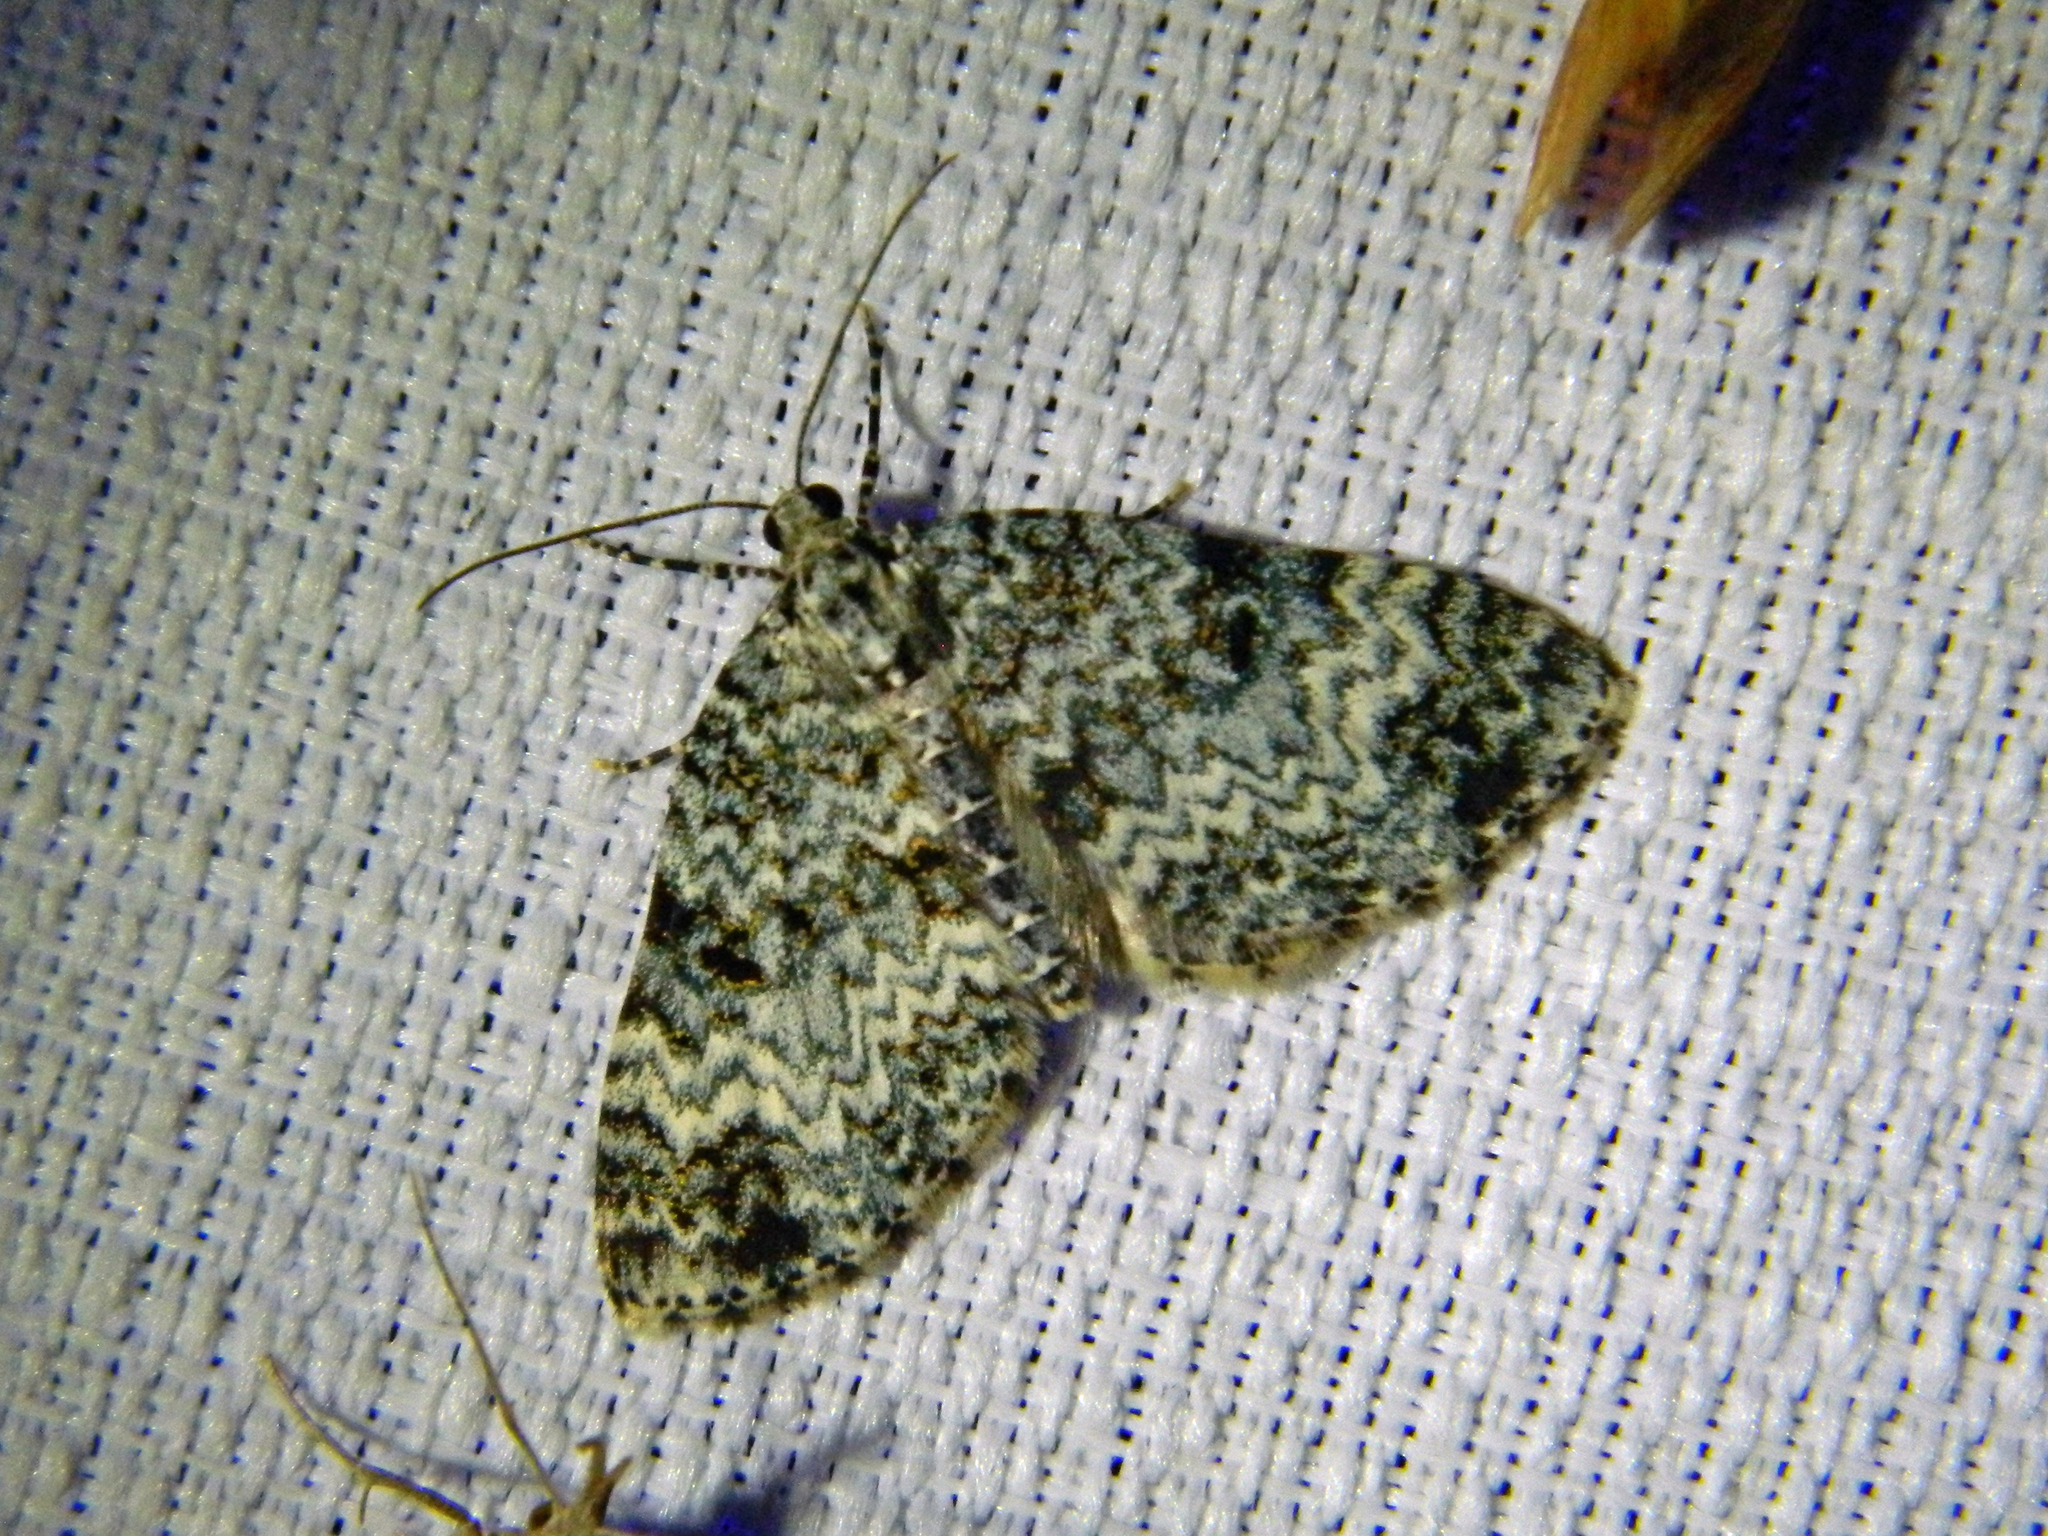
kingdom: Animalia
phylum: Arthropoda
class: Insecta
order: Lepidoptera
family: Geometridae
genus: Spargania
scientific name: Spargania magnoliata
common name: Double-banded carpet
